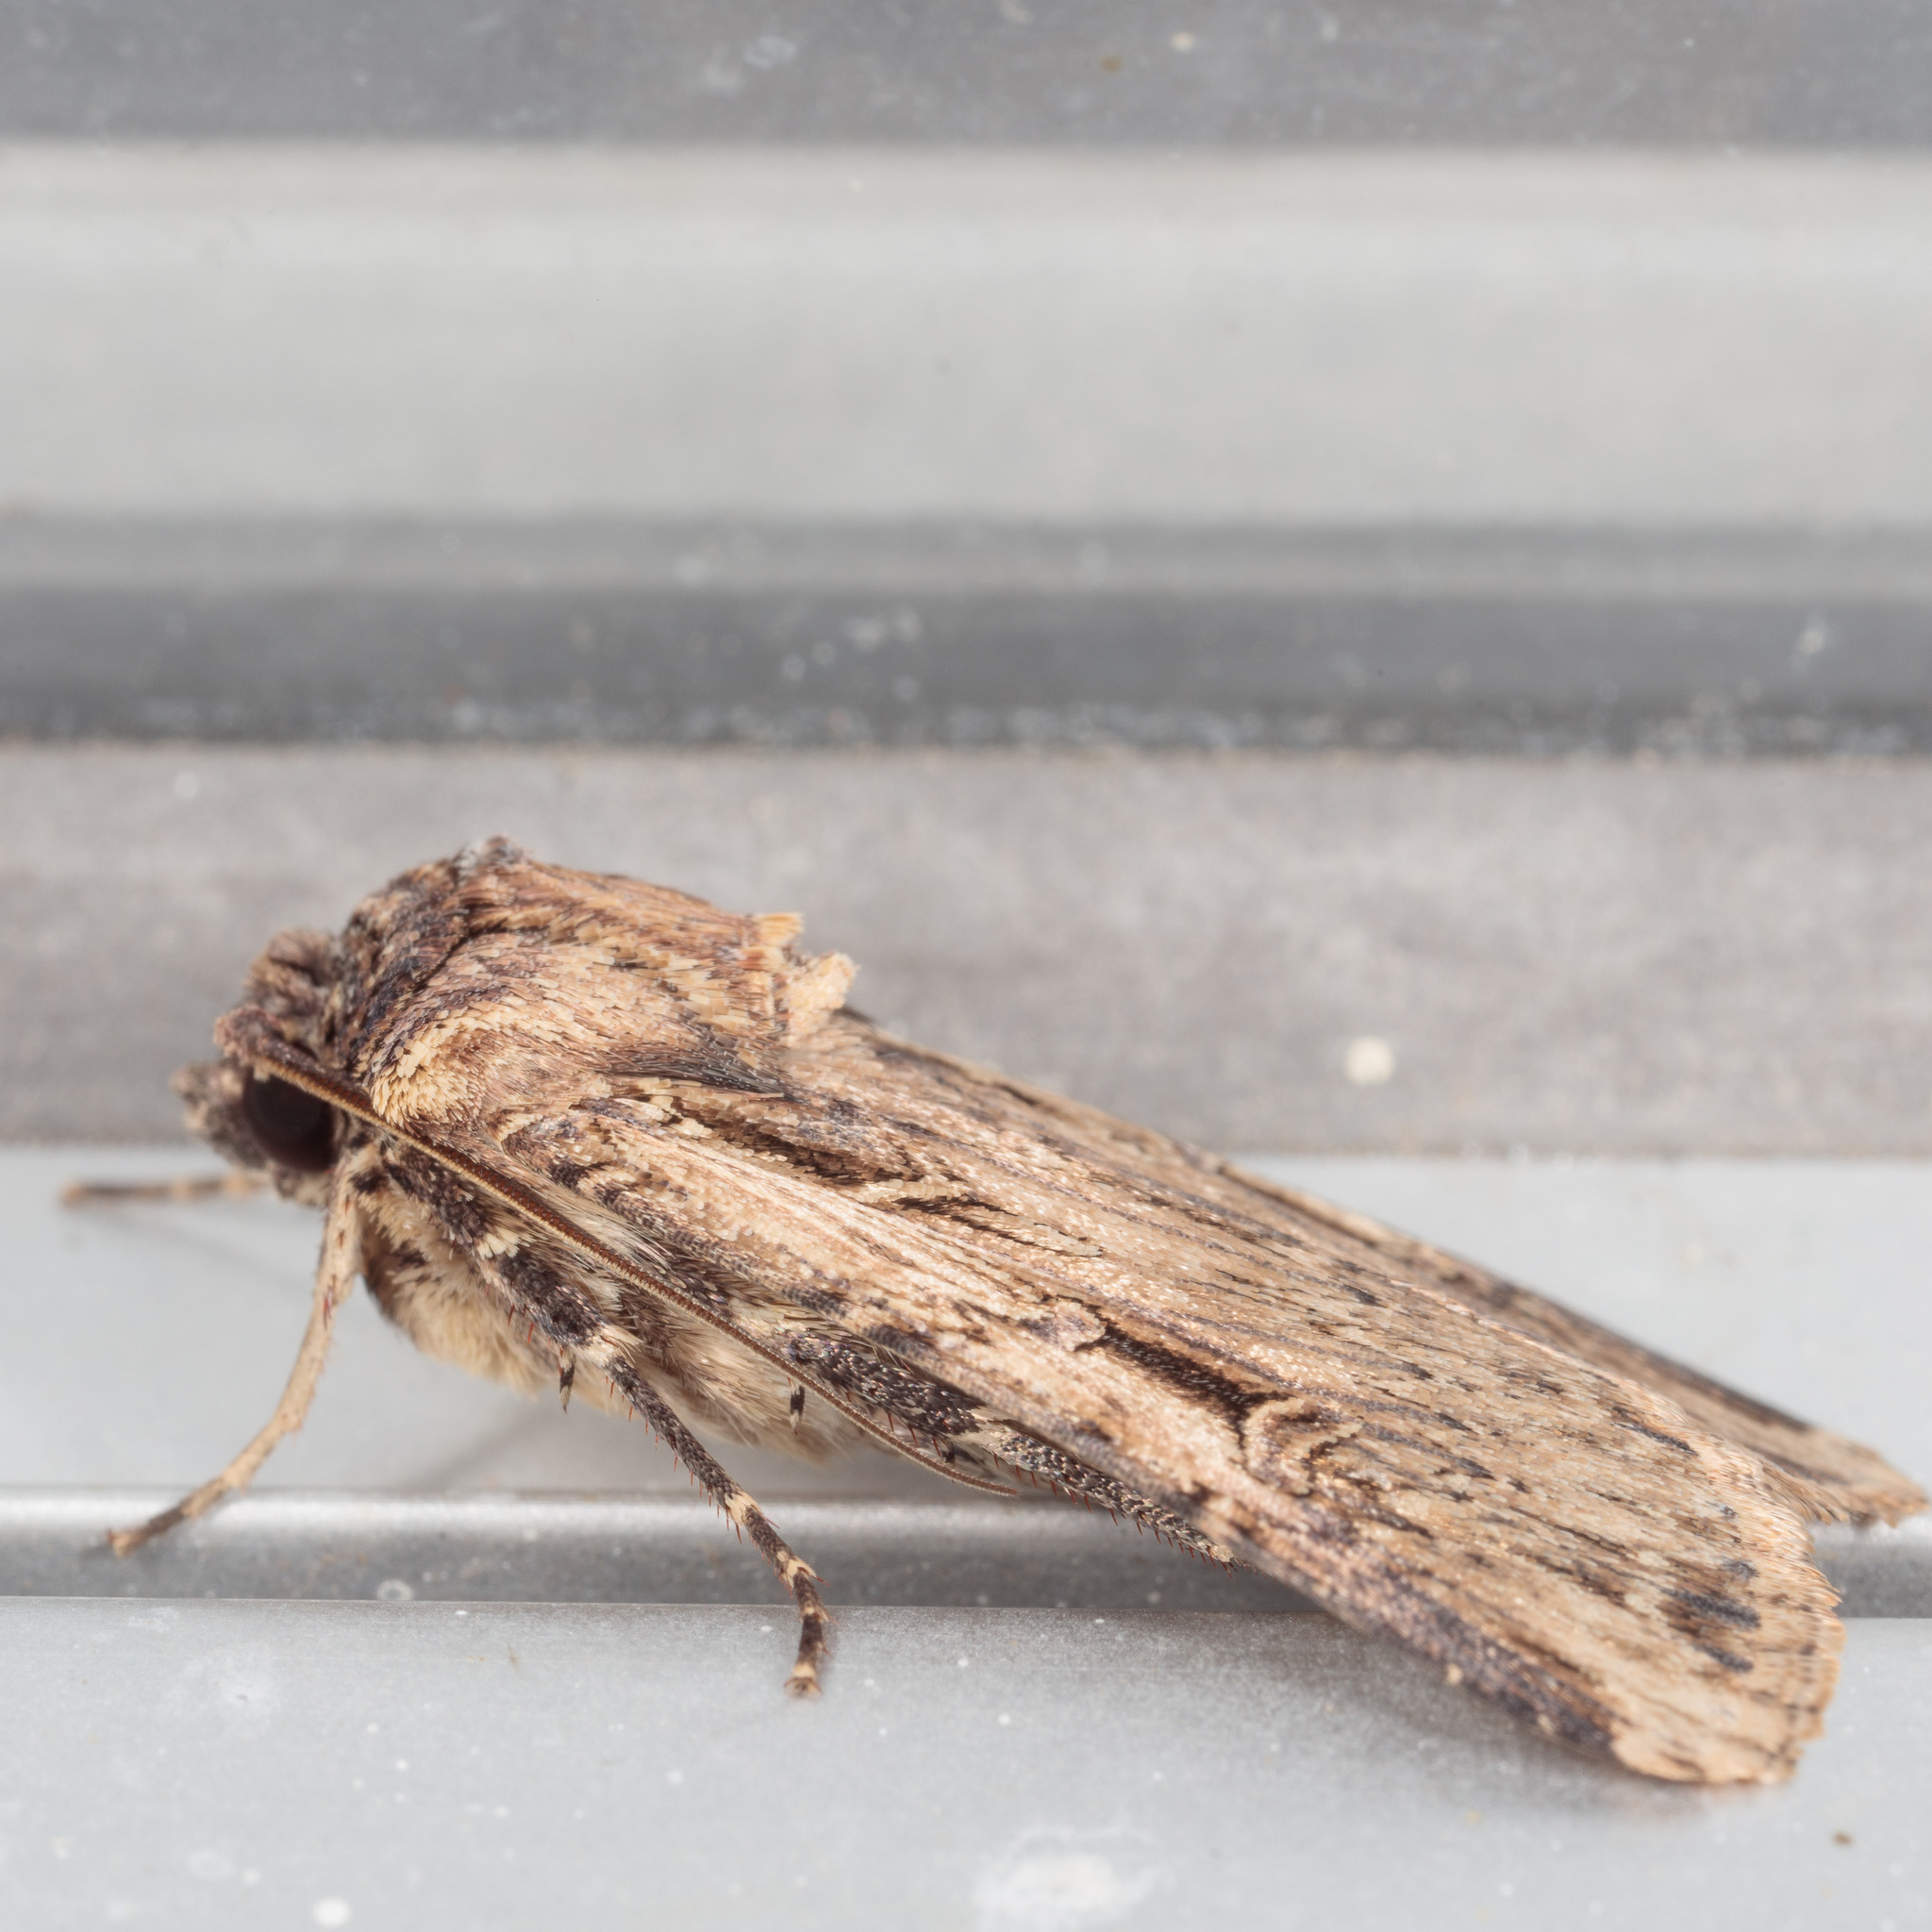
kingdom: Animalia
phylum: Arthropoda
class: Insecta
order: Lepidoptera
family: Noctuidae
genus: Feltia
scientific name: Feltia subterranea
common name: Granulate cutworm
